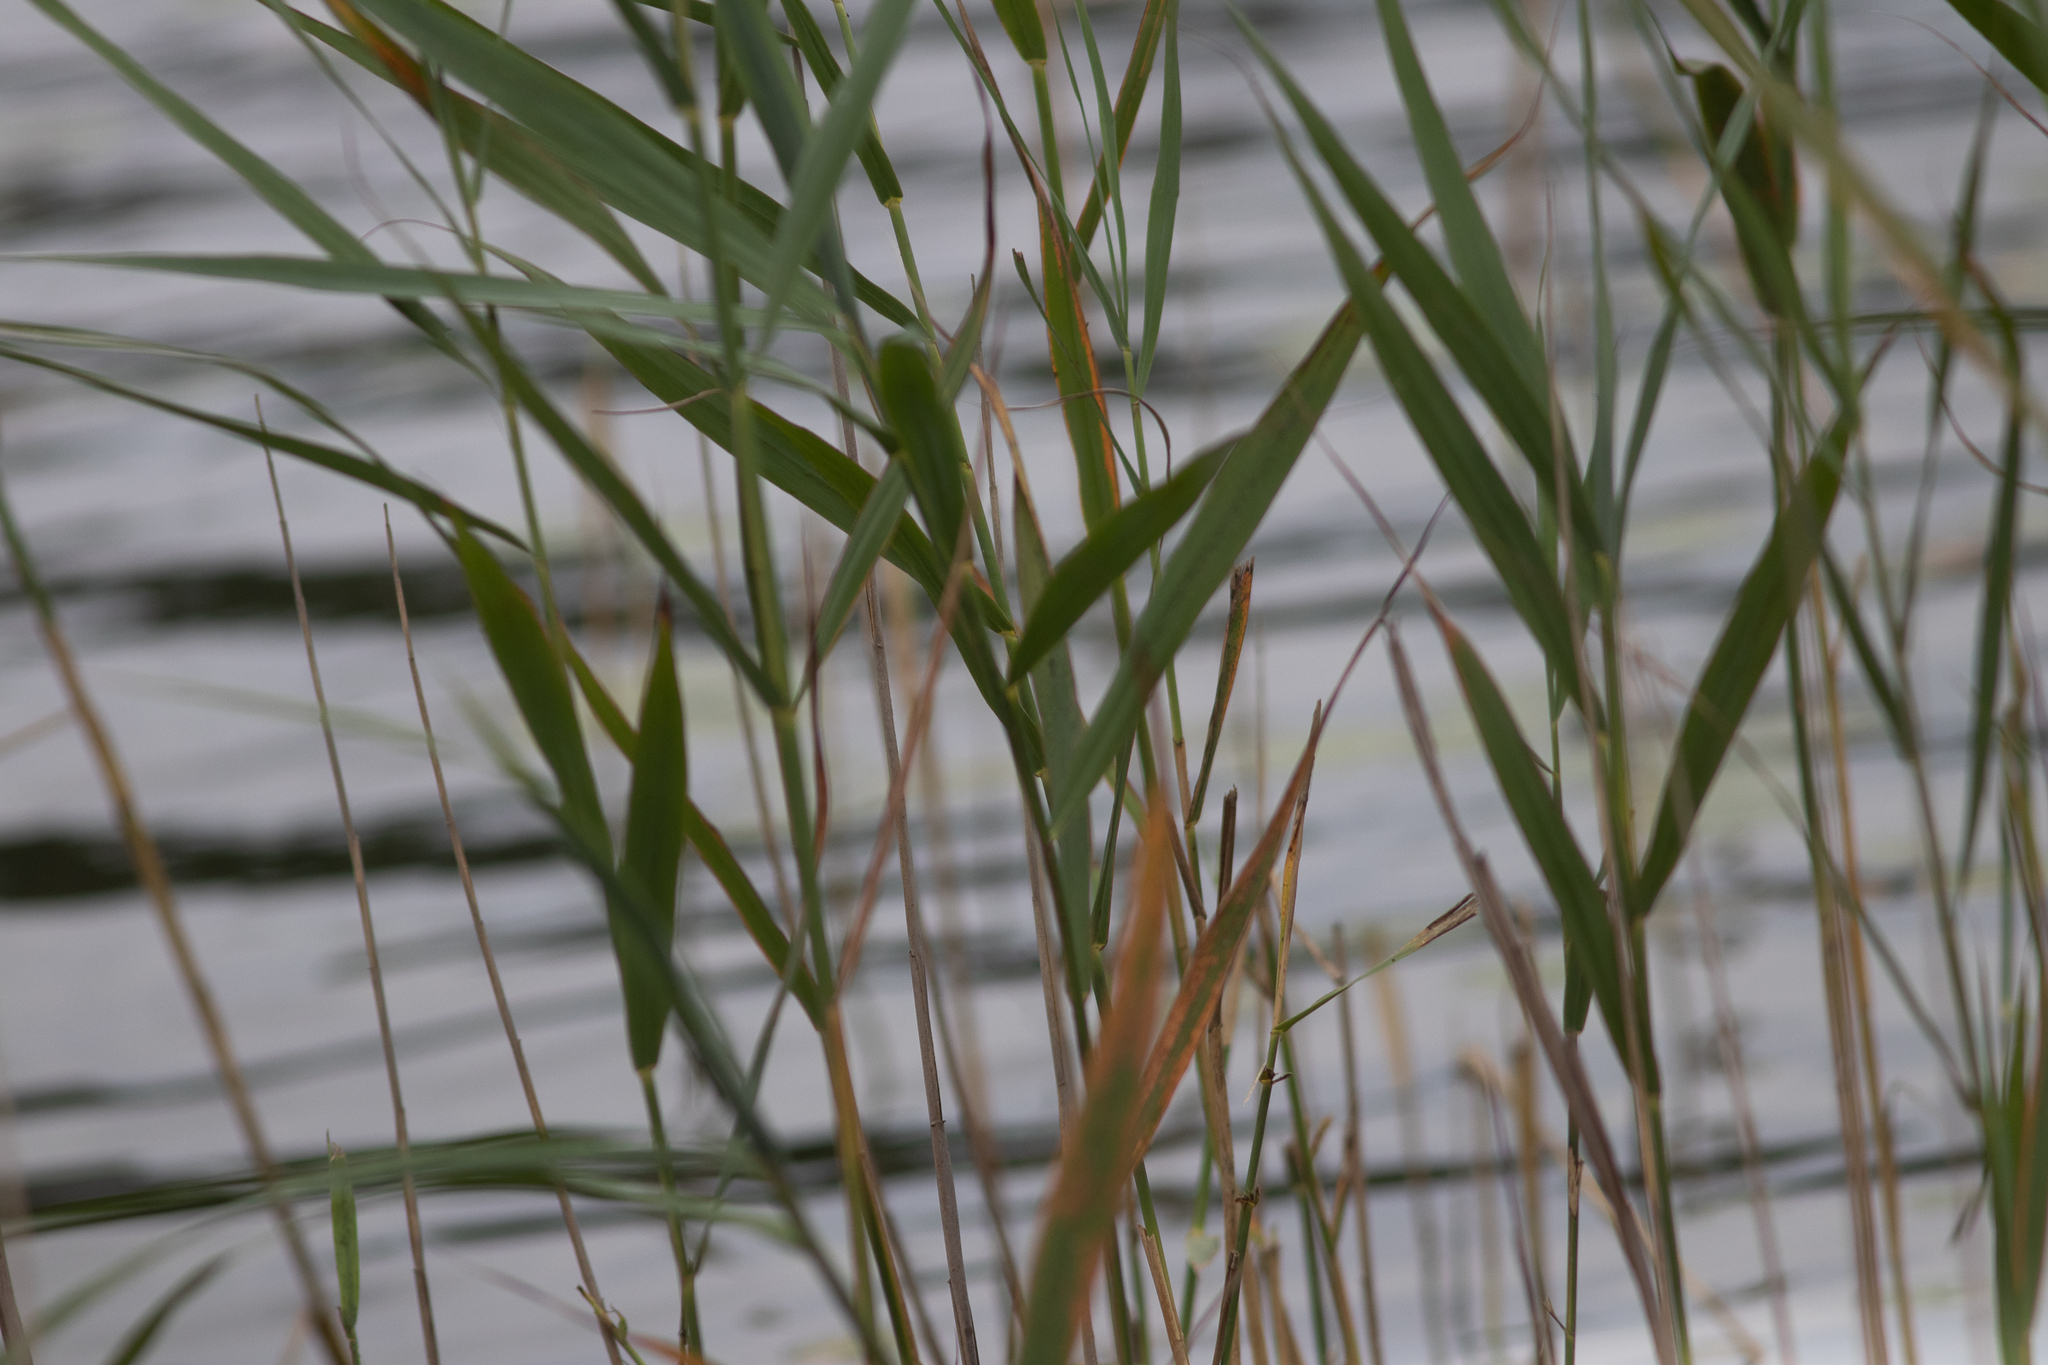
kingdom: Plantae
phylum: Tracheophyta
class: Liliopsida
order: Poales
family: Poaceae
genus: Phragmites
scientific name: Phragmites australis
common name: Common reed
